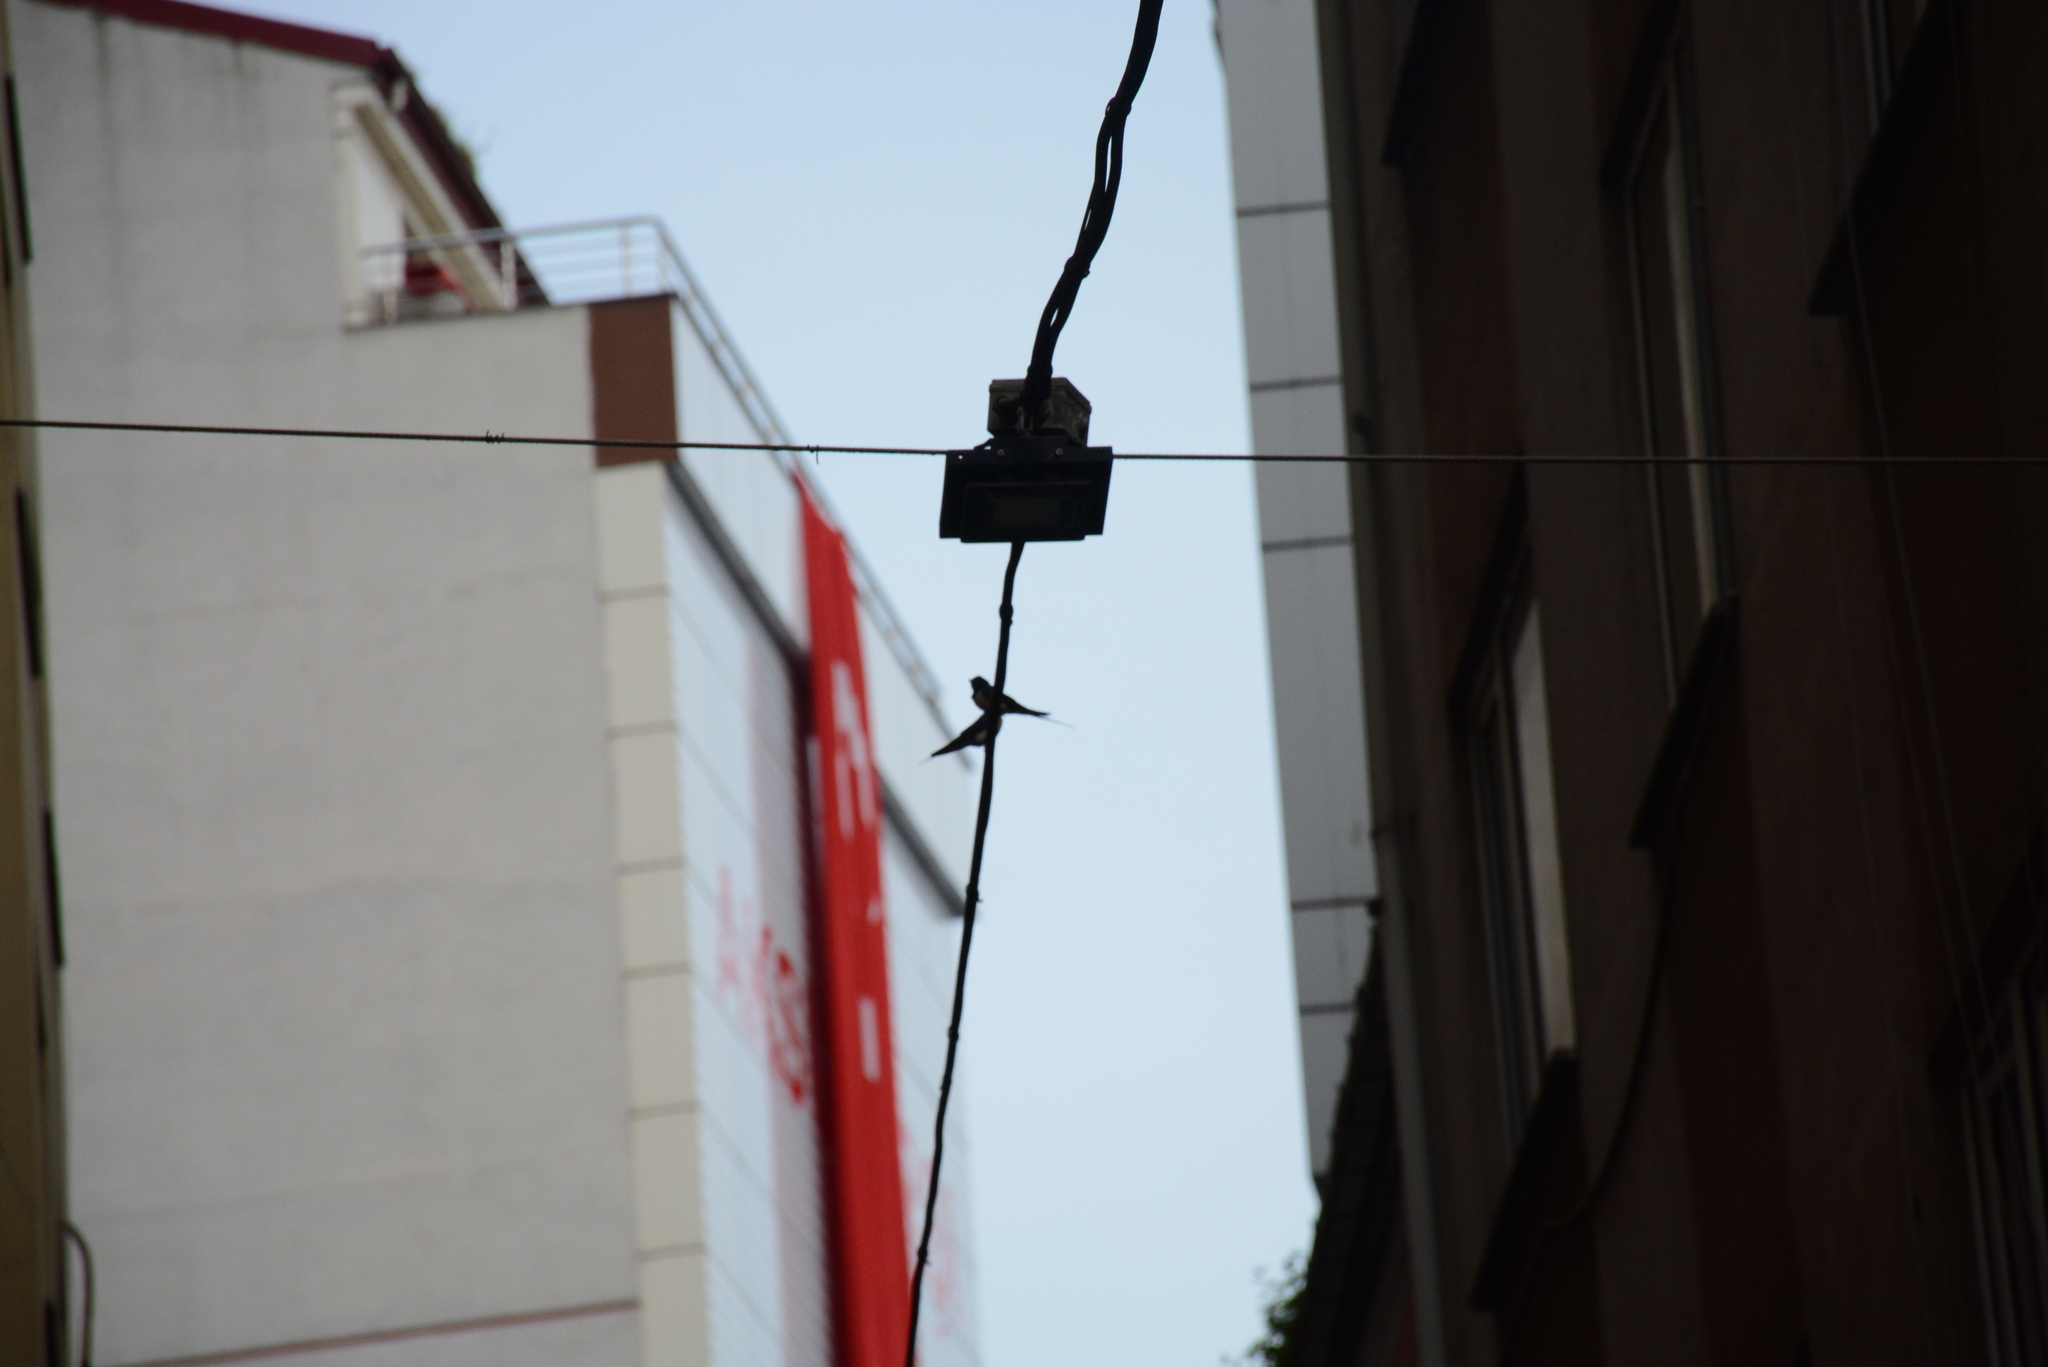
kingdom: Animalia
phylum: Chordata
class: Aves
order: Passeriformes
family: Hirundinidae
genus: Hirundo
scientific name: Hirundo rustica
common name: Barn swallow
